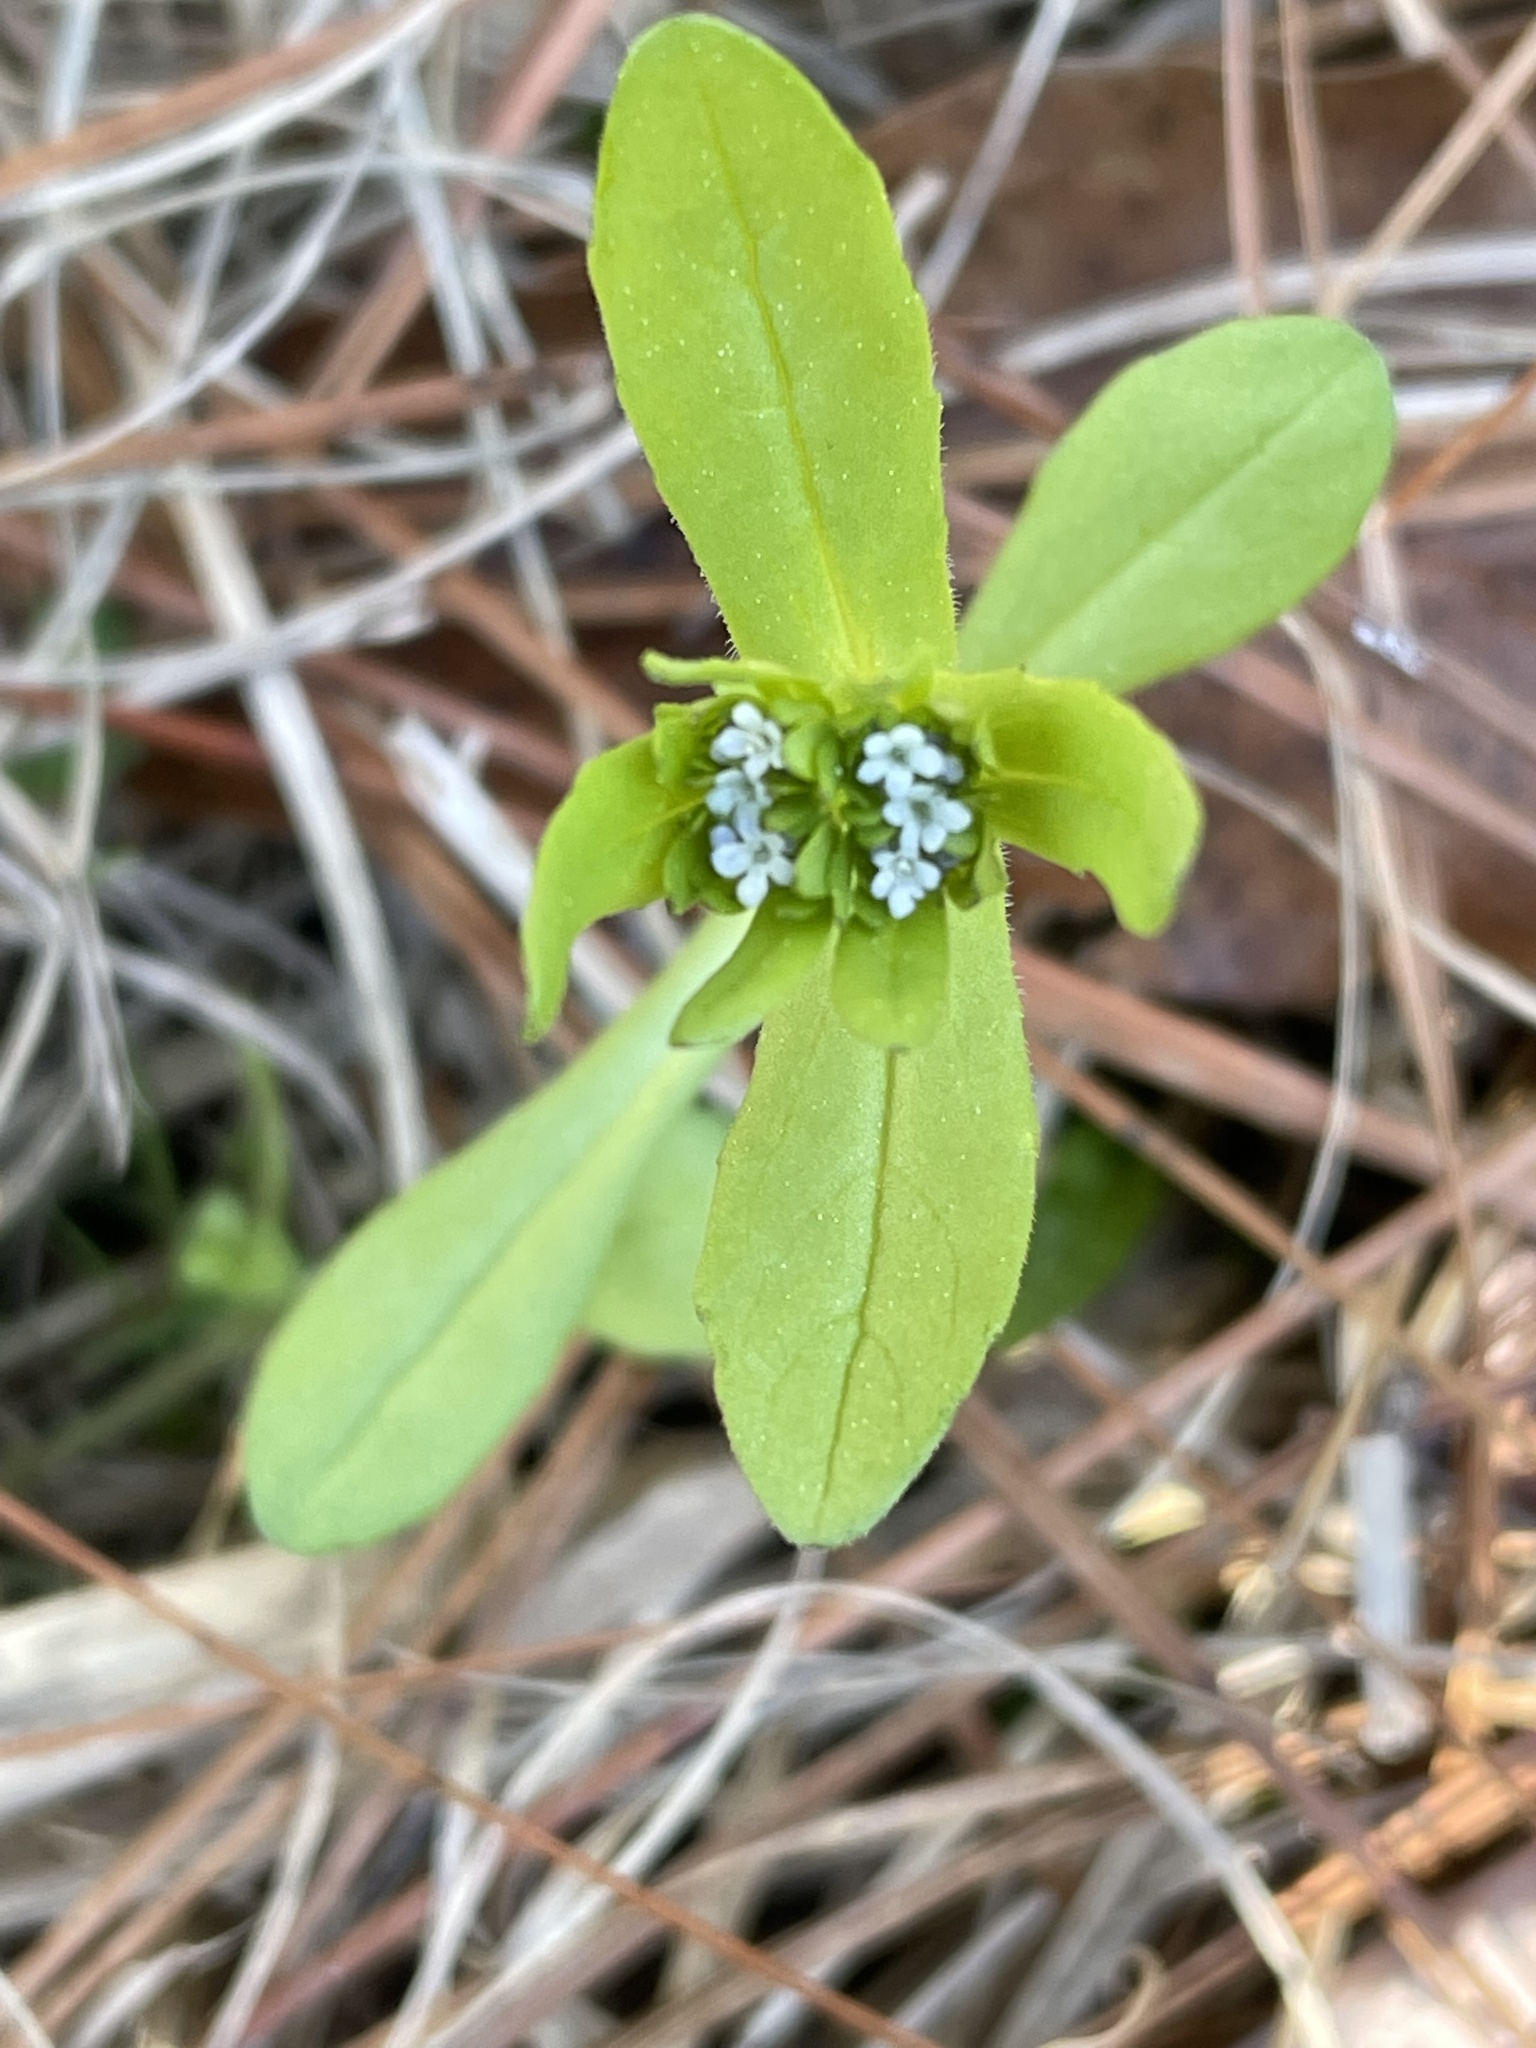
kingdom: Plantae
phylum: Tracheophyta
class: Magnoliopsida
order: Dipsacales
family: Caprifoliaceae
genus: Valerianella
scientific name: Valerianella locusta
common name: Common cornsalad
